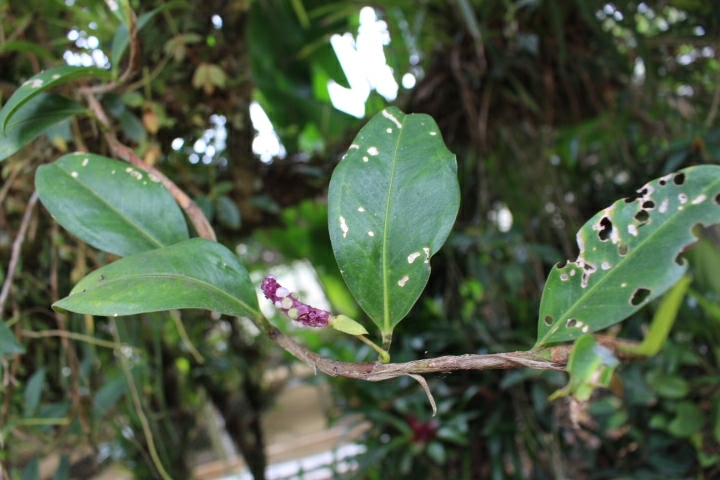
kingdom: Plantae
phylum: Tracheophyta
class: Liliopsida
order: Alismatales
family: Araceae
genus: Anthurium
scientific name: Anthurium scandens
